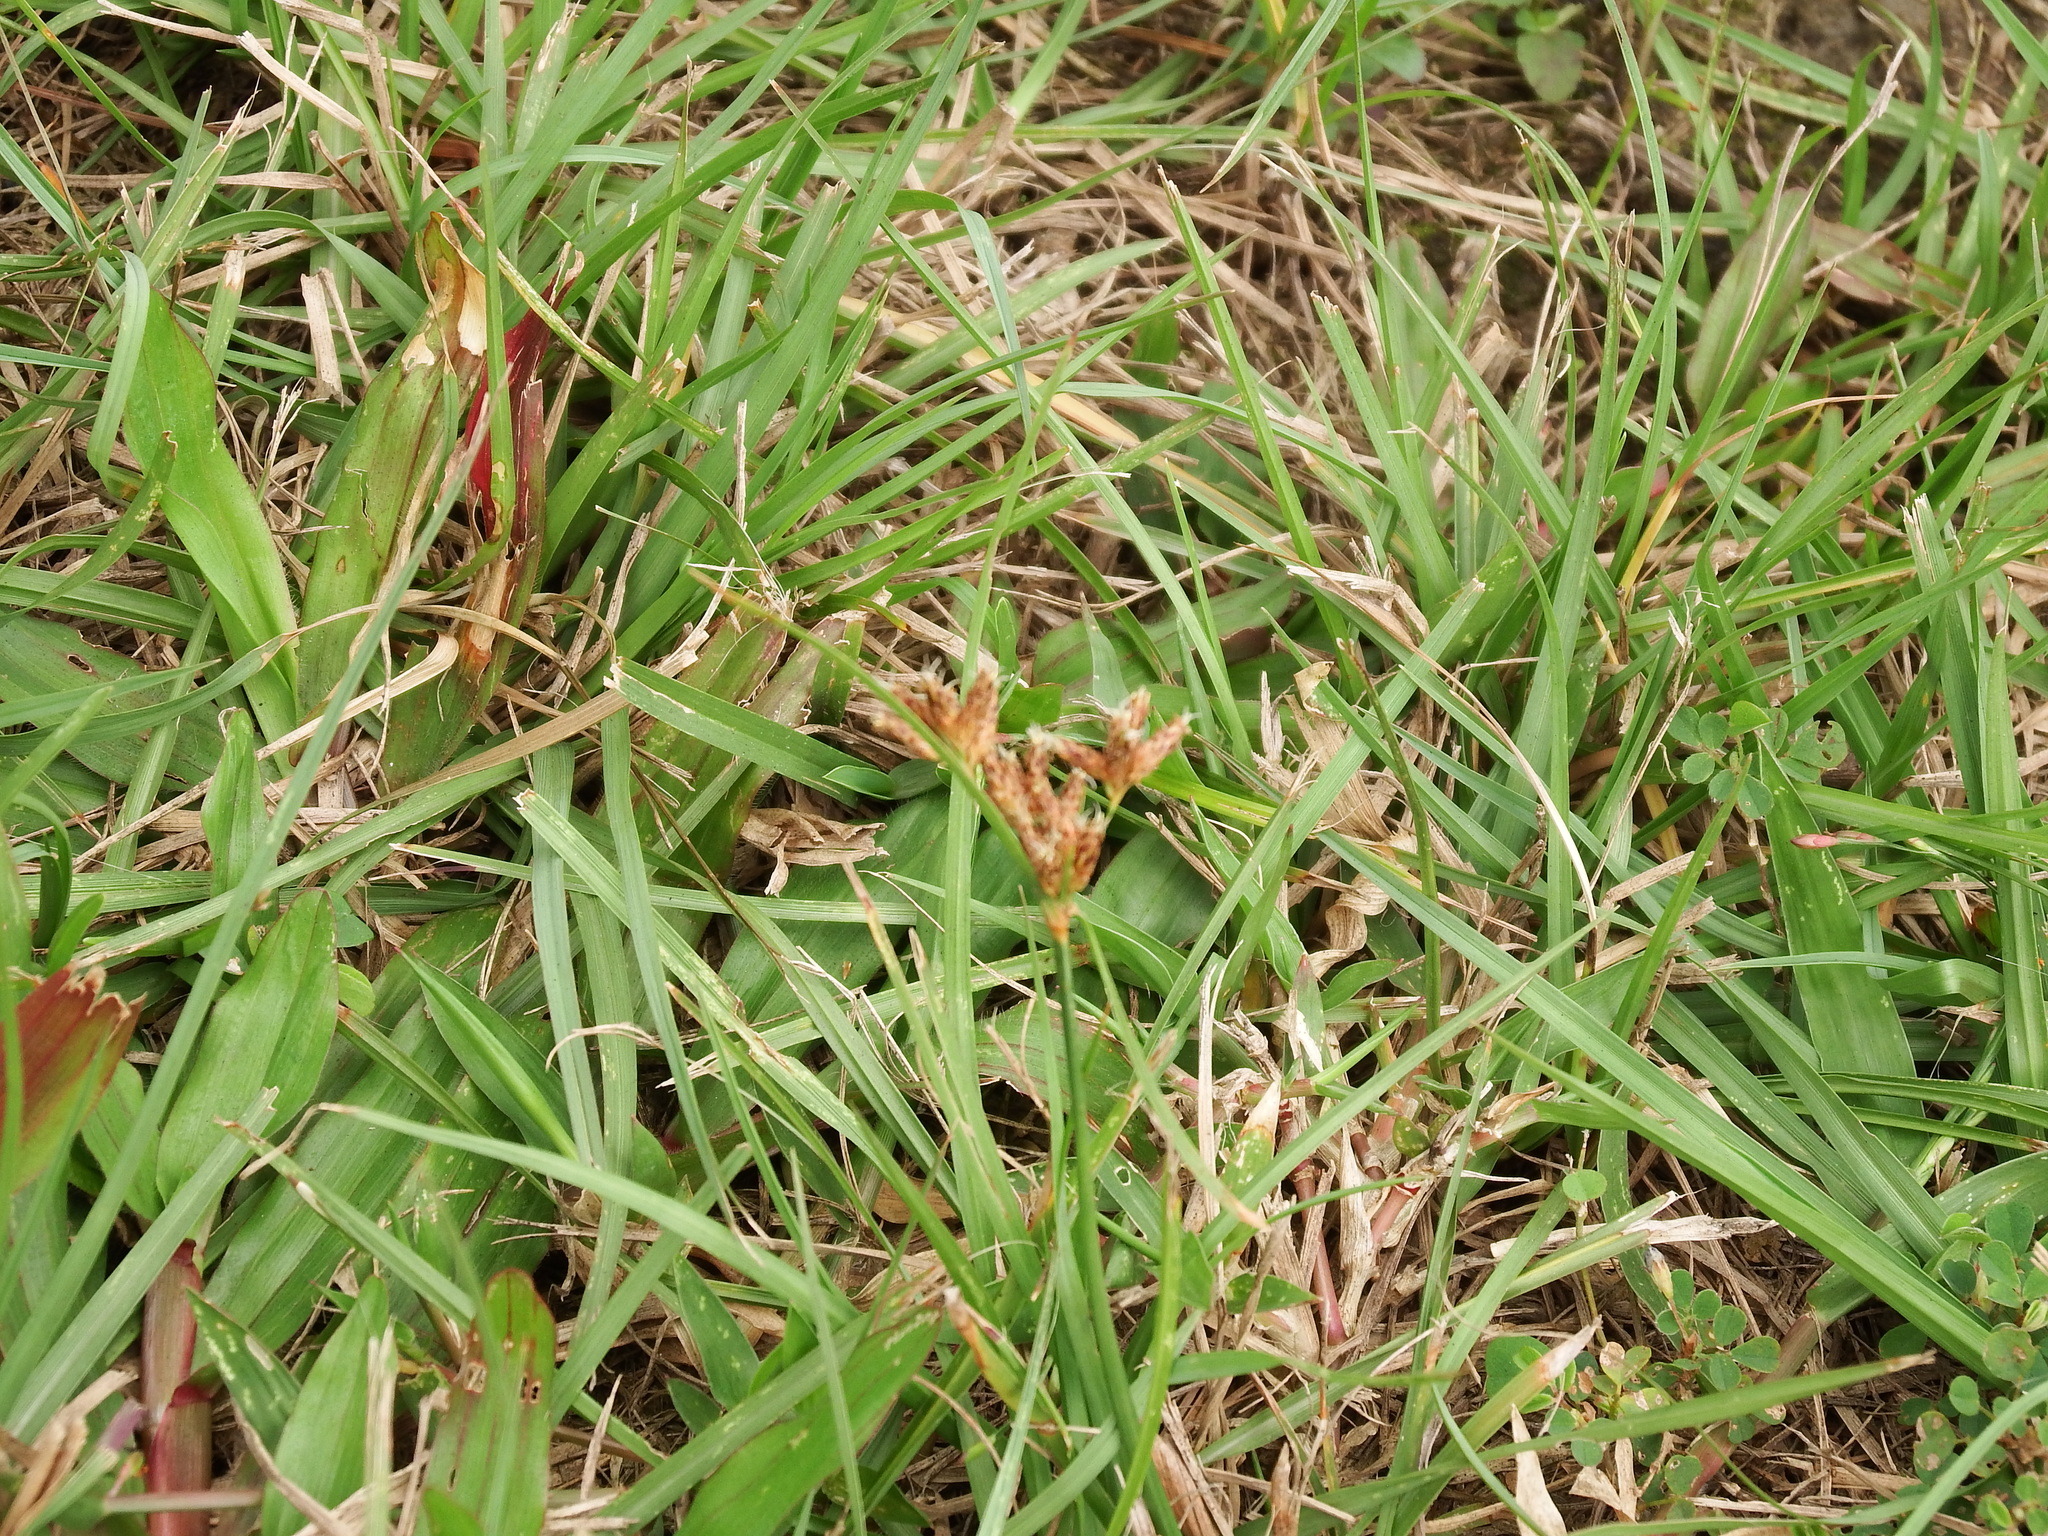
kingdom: Plantae
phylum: Tracheophyta
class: Liliopsida
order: Poales
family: Cyperaceae
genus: Fimbristylis
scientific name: Fimbristylis dichotoma
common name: Forked fimbry
